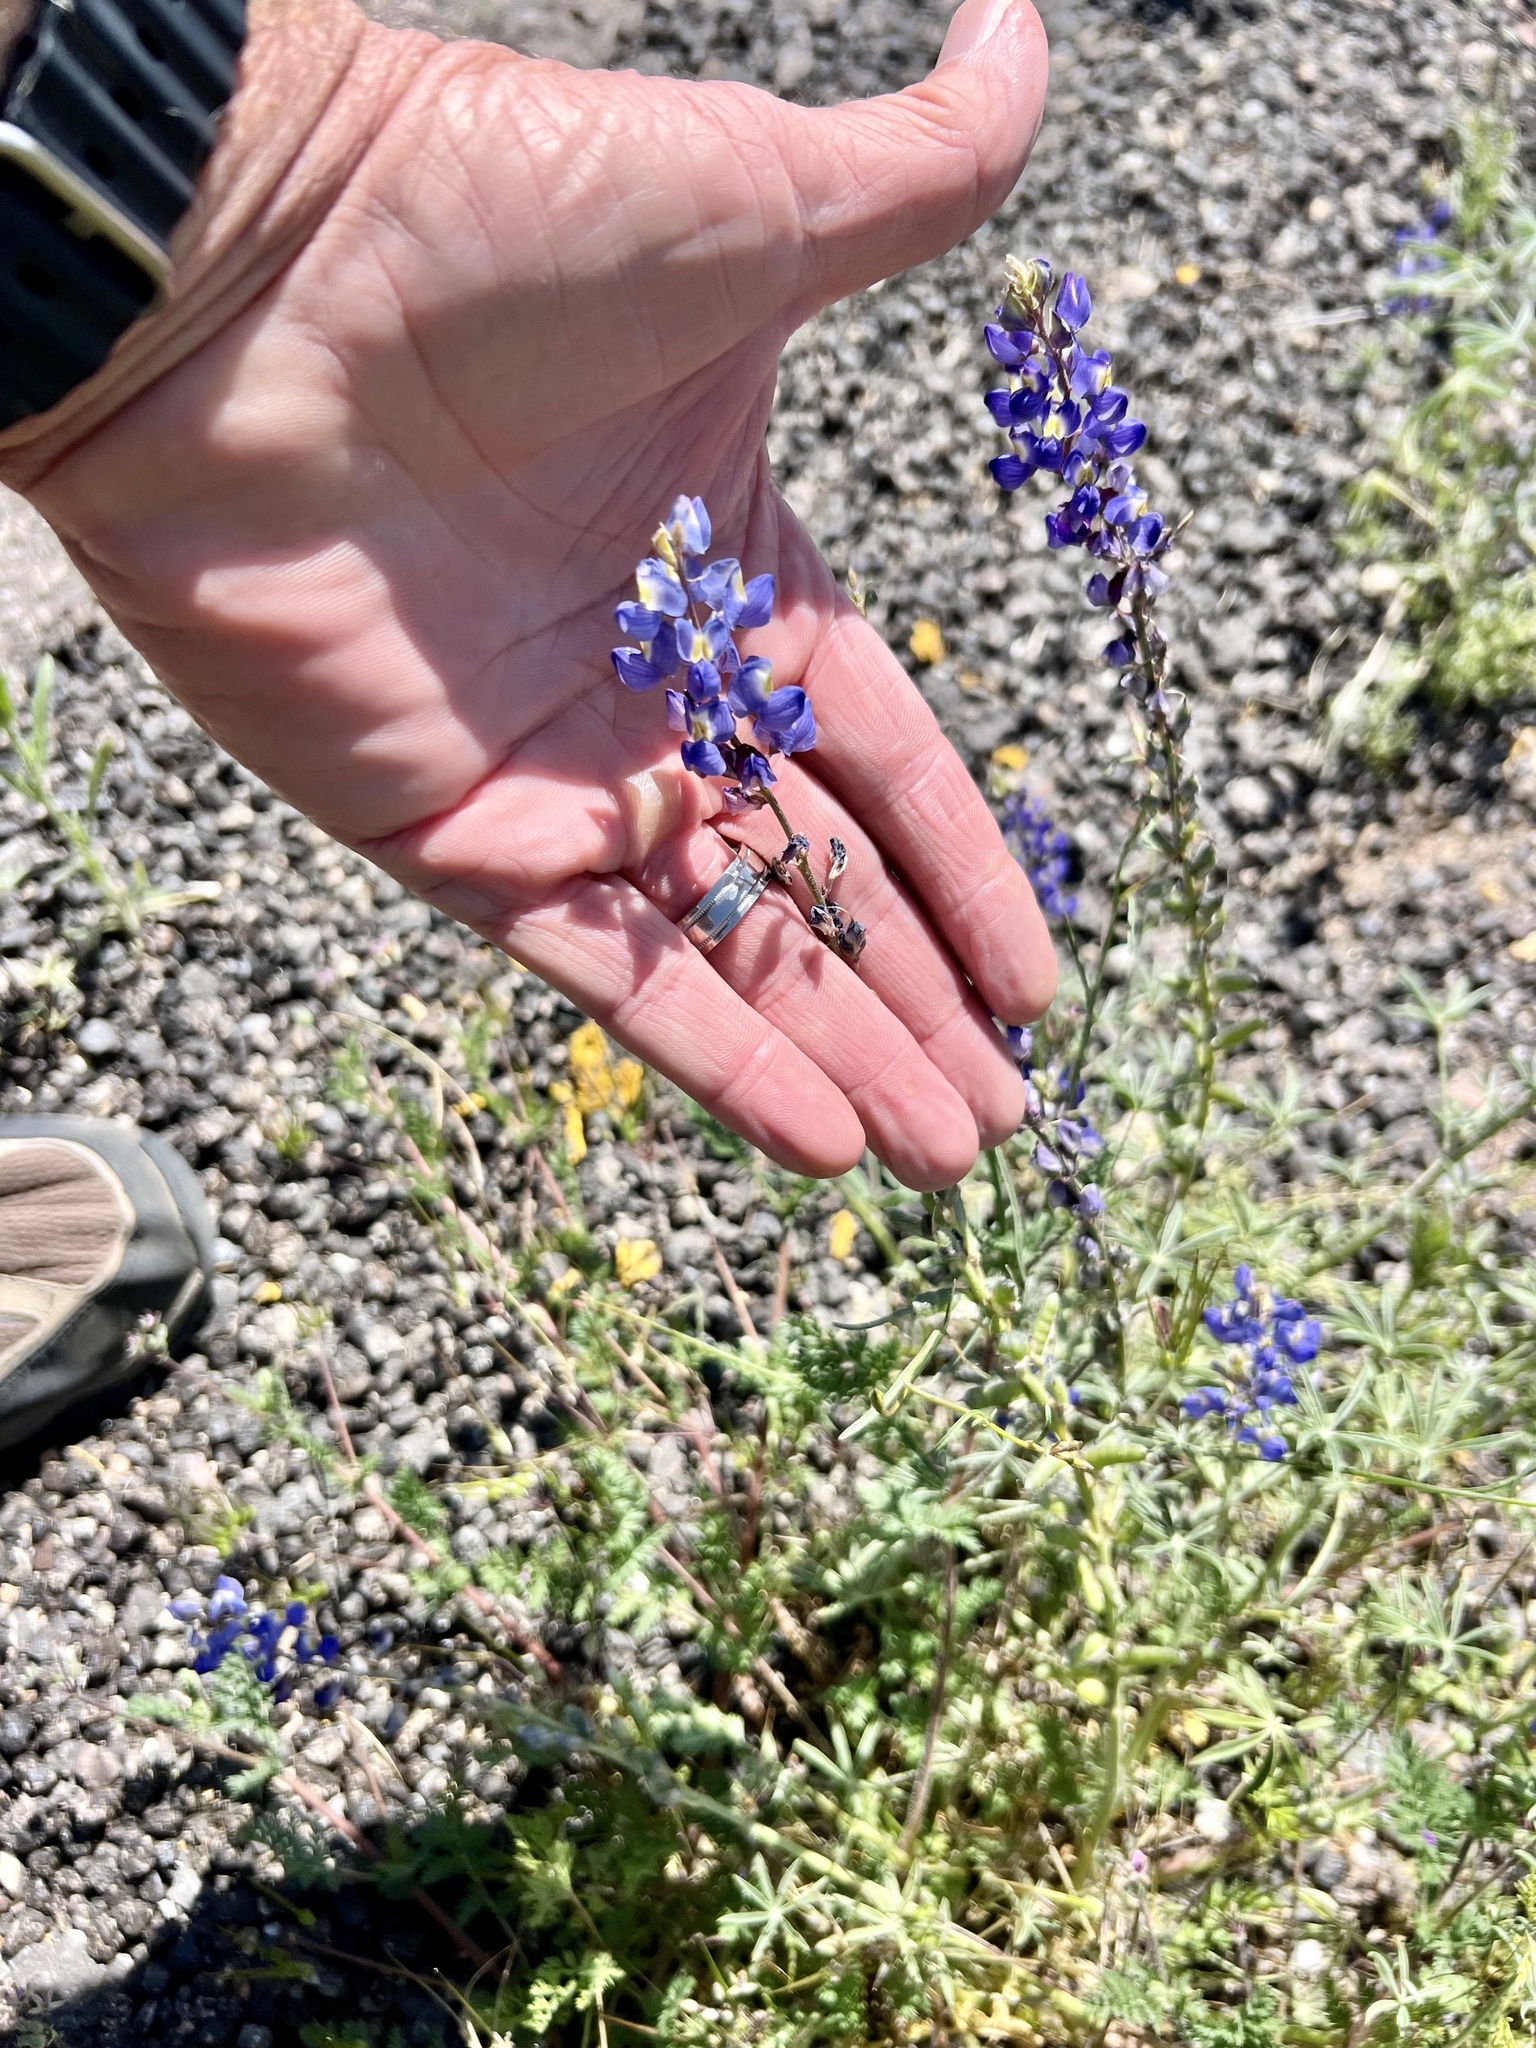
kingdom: Plantae
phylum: Tracheophyta
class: Magnoliopsida
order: Fabales
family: Fabaceae
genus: Lupinus
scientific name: Lupinus sparsiflorus
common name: Coulter's lupine
